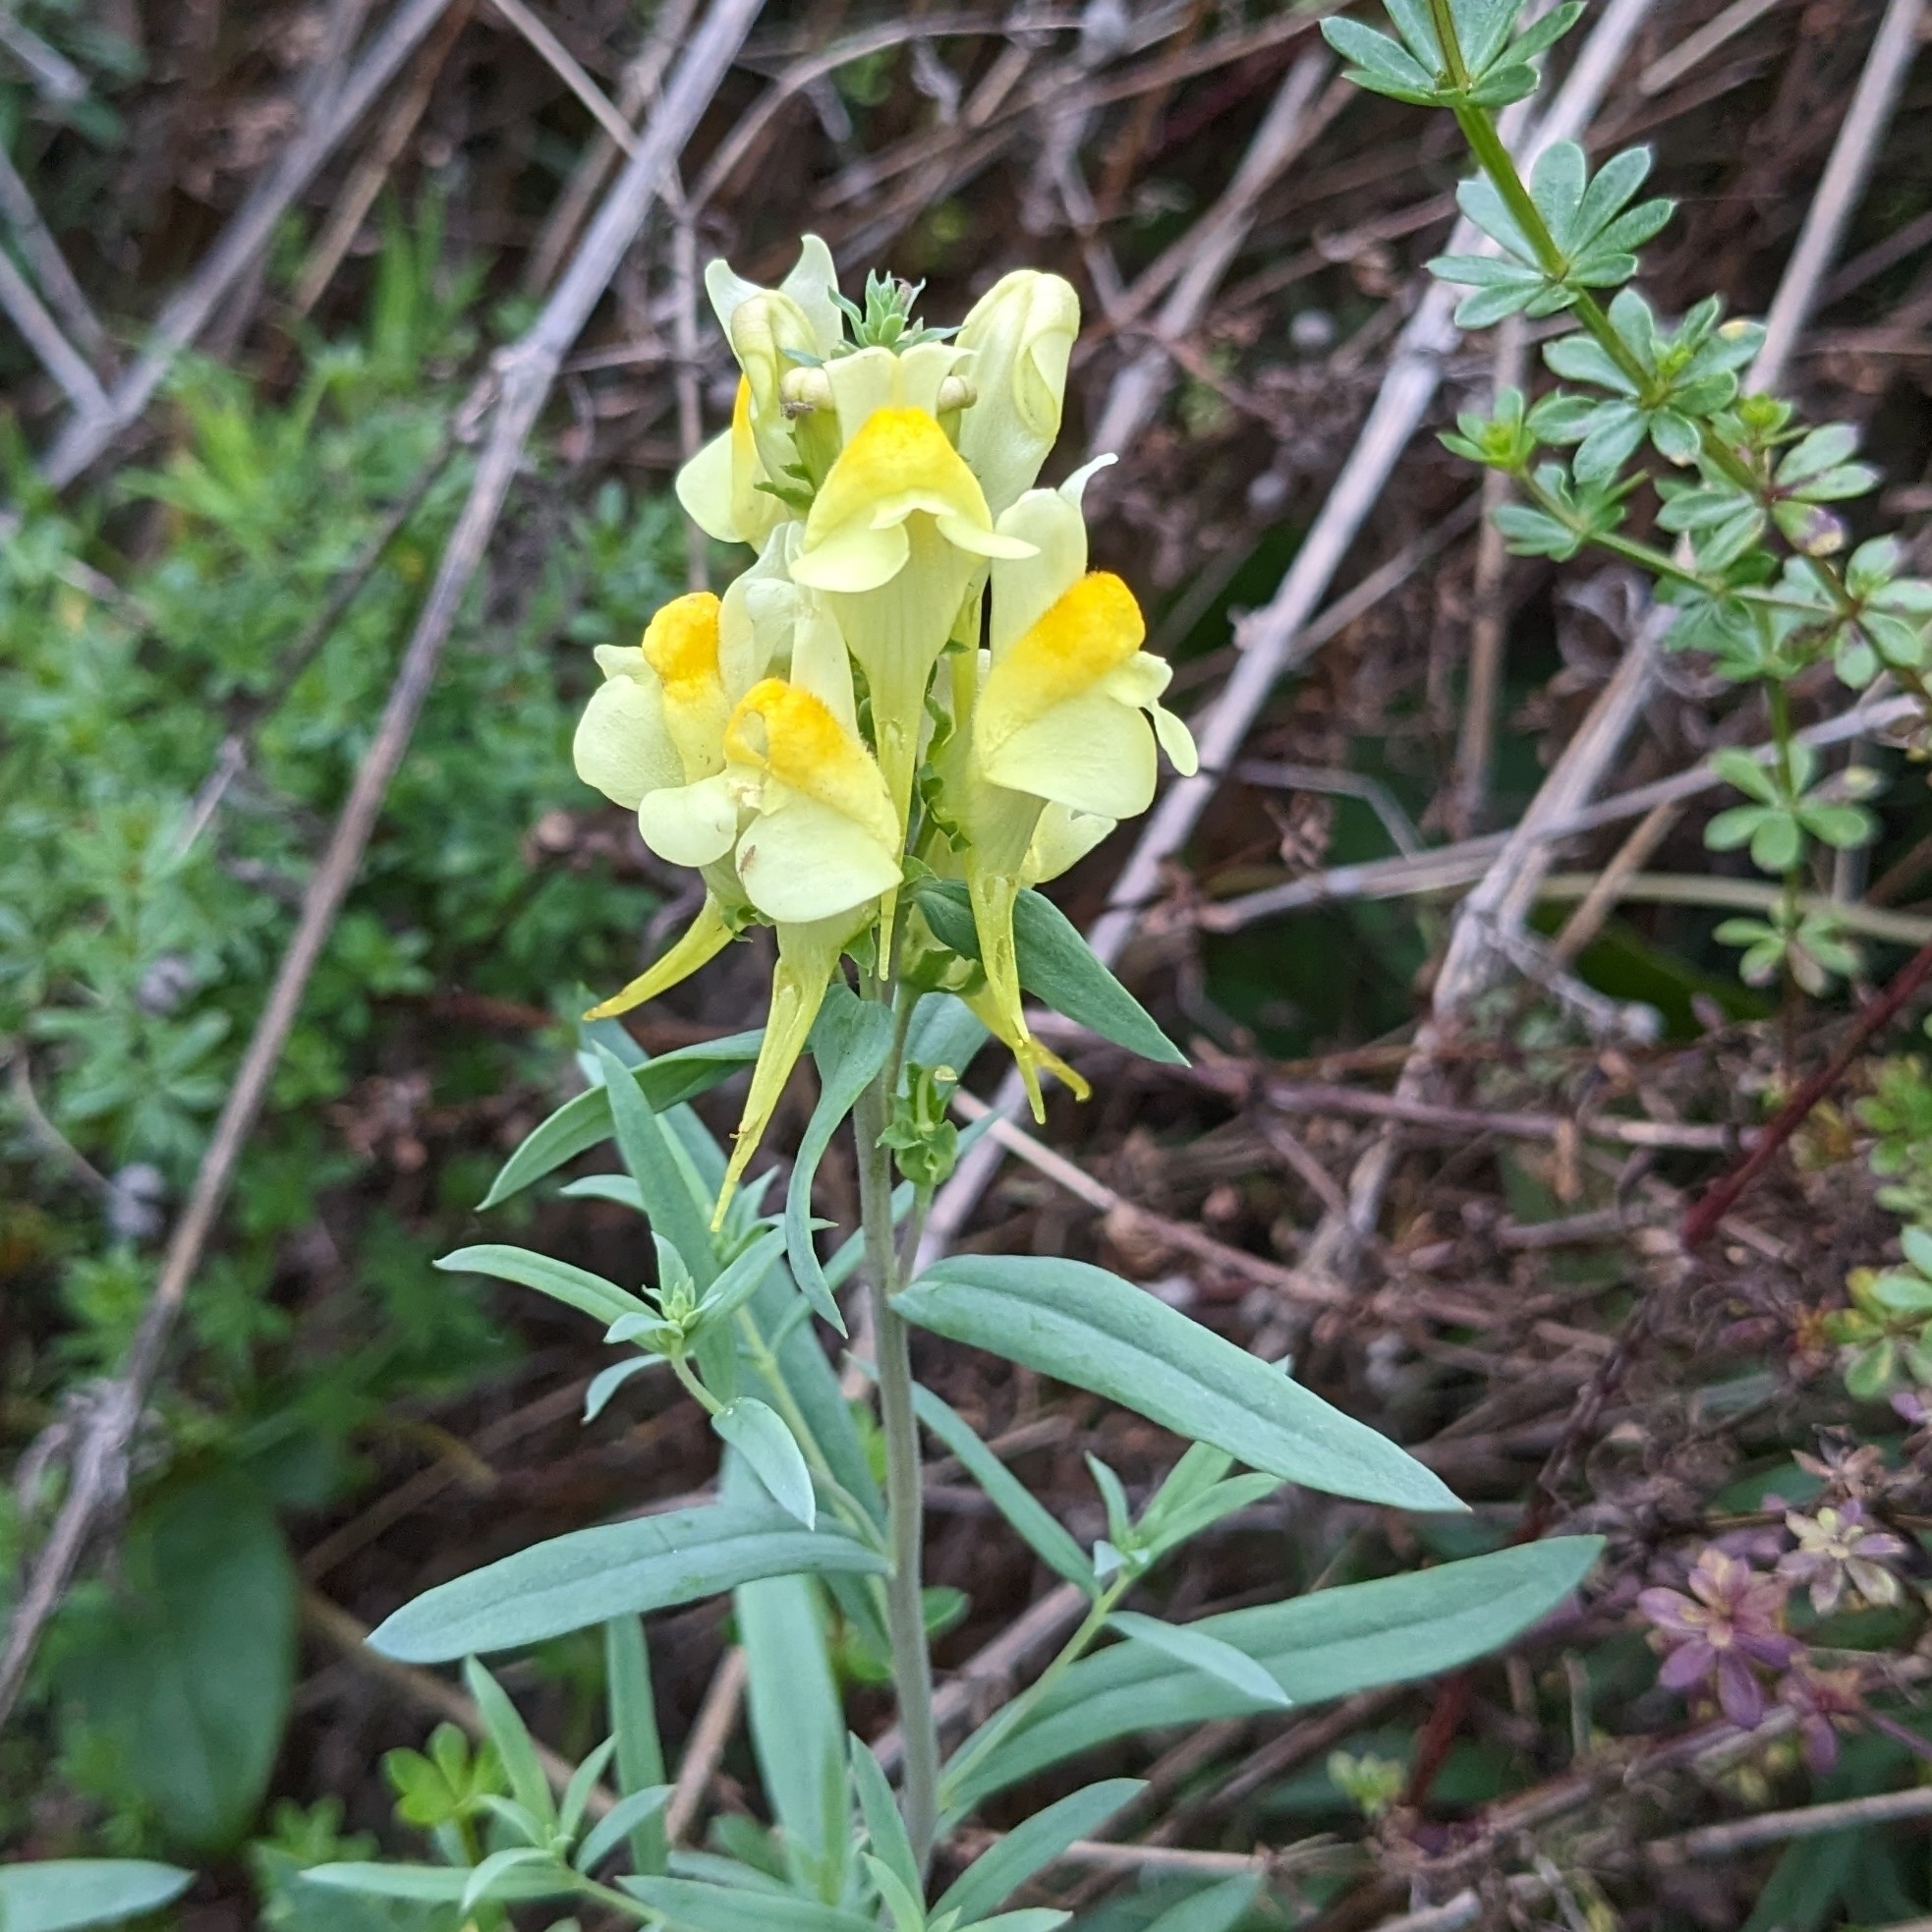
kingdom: Plantae
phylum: Tracheophyta
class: Magnoliopsida
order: Lamiales
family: Plantaginaceae
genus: Linaria
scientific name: Linaria vulgaris
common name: Butter and eggs
